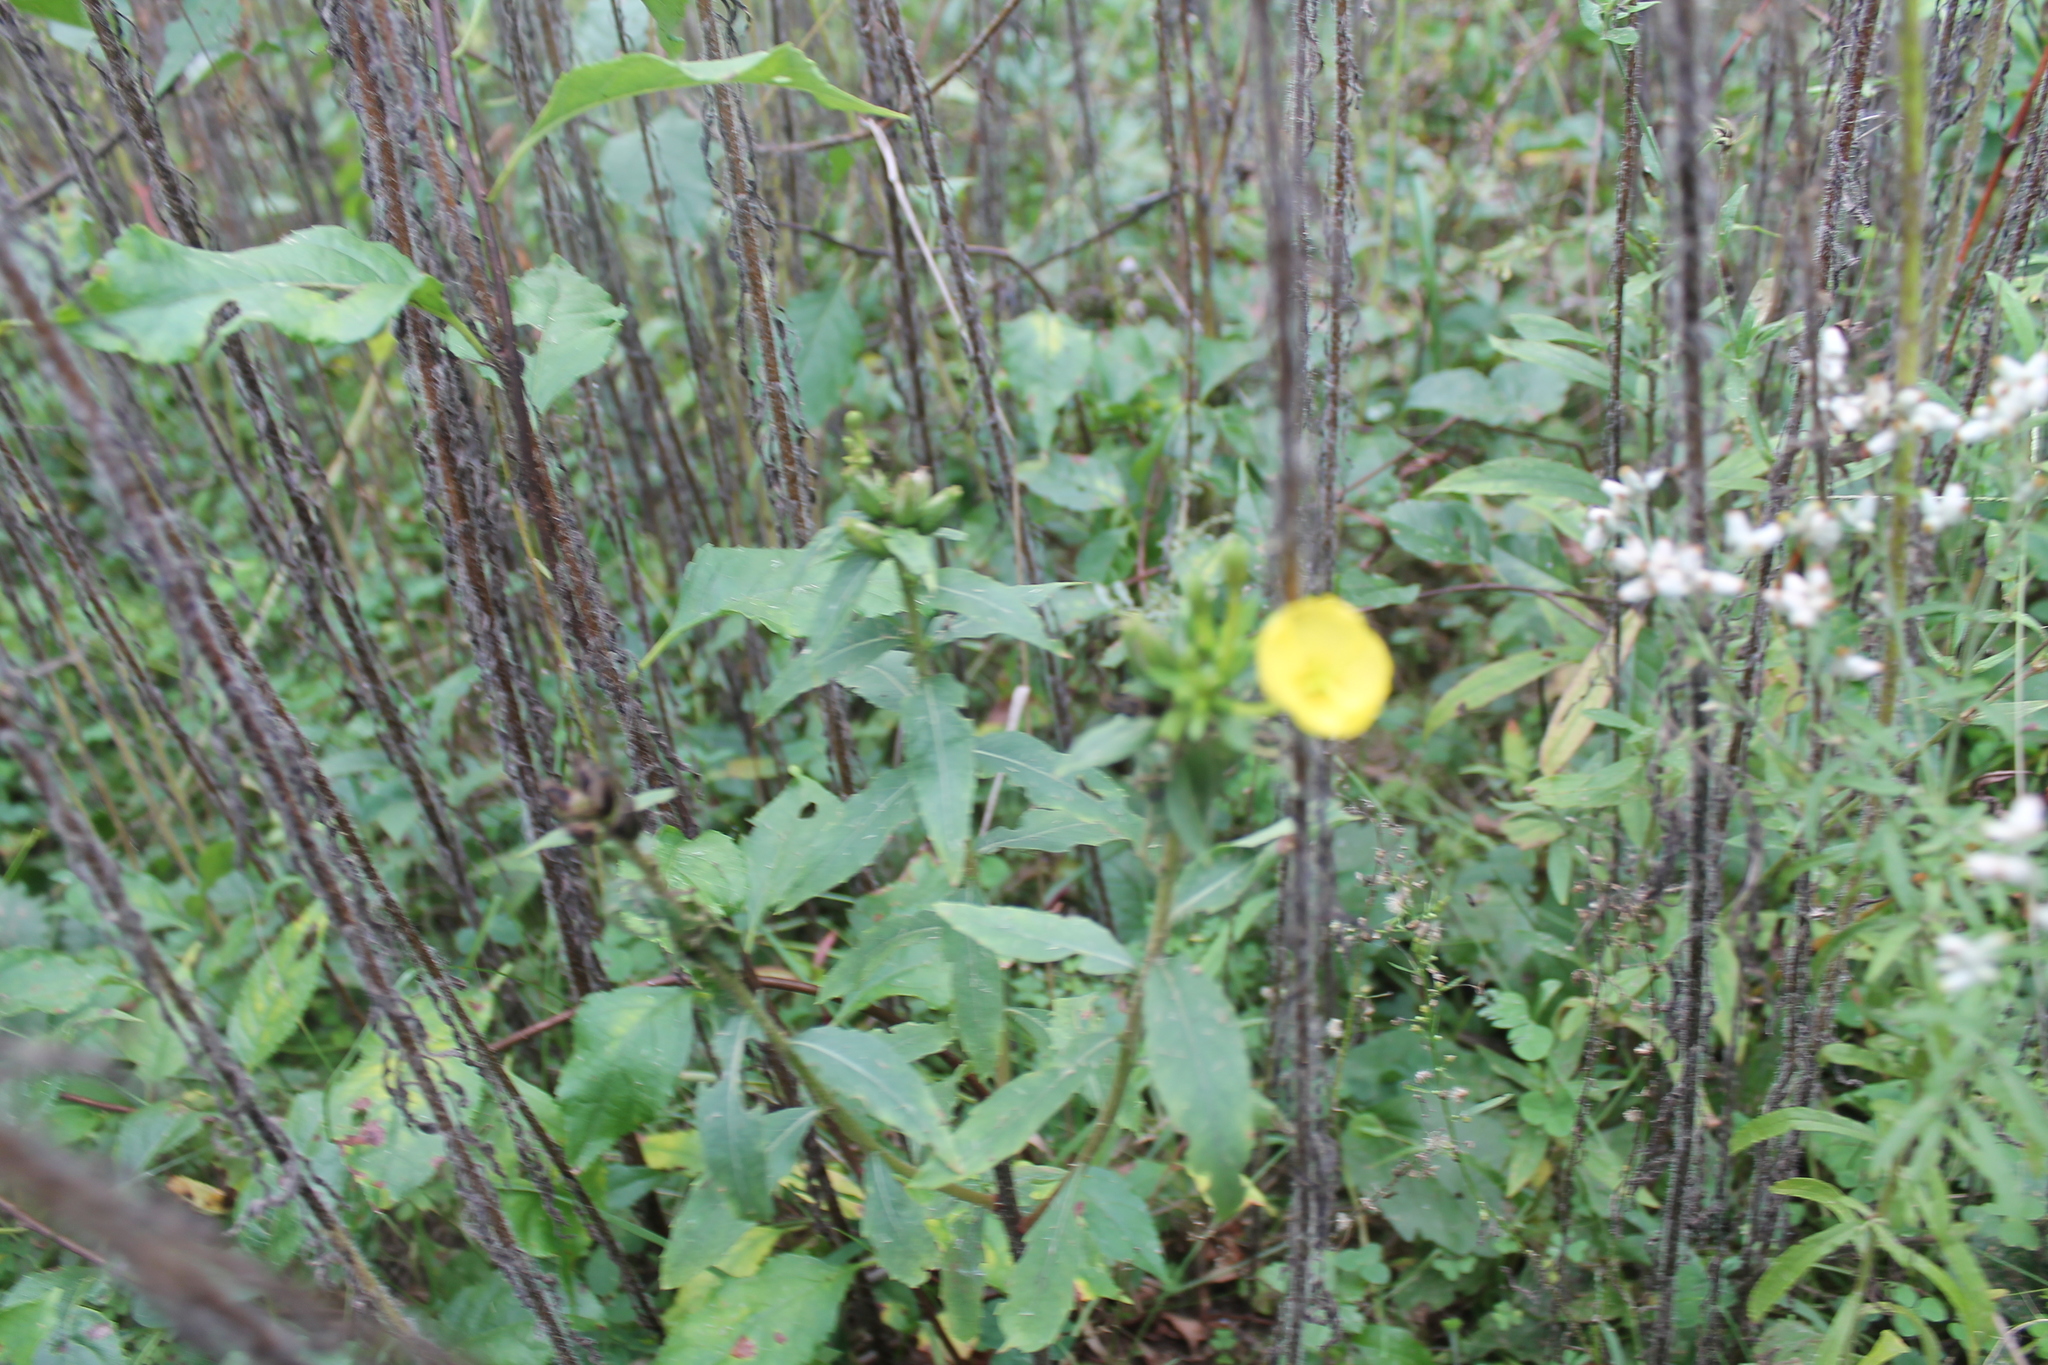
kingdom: Plantae
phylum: Tracheophyta
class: Magnoliopsida
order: Myrtales
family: Onagraceae
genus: Oenothera
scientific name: Oenothera biennis
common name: Common evening-primrose
